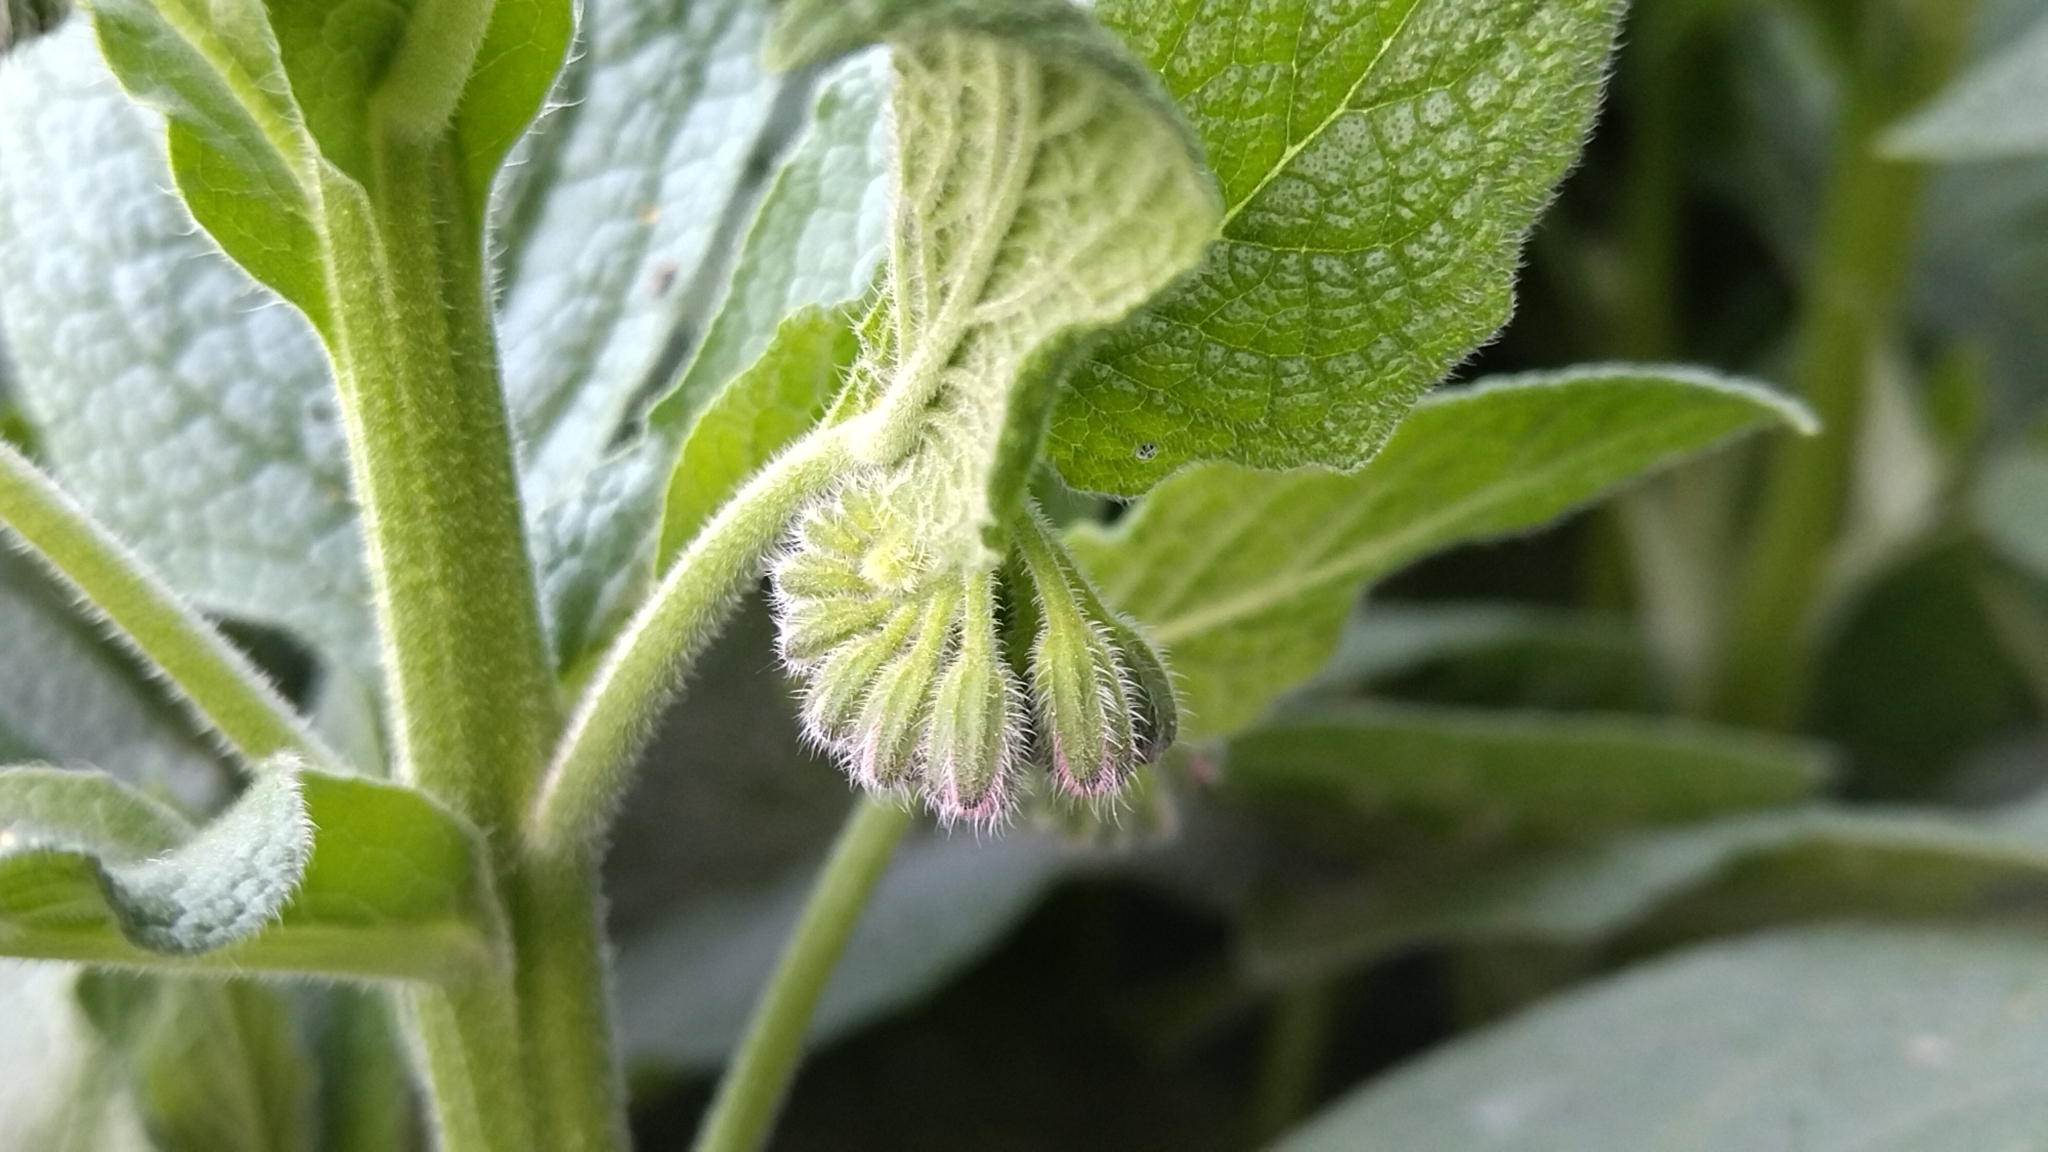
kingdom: Plantae
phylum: Tracheophyta
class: Magnoliopsida
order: Boraginales
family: Boraginaceae
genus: Symphytum
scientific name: Symphytum caucasicum
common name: Caucasian comfrey
